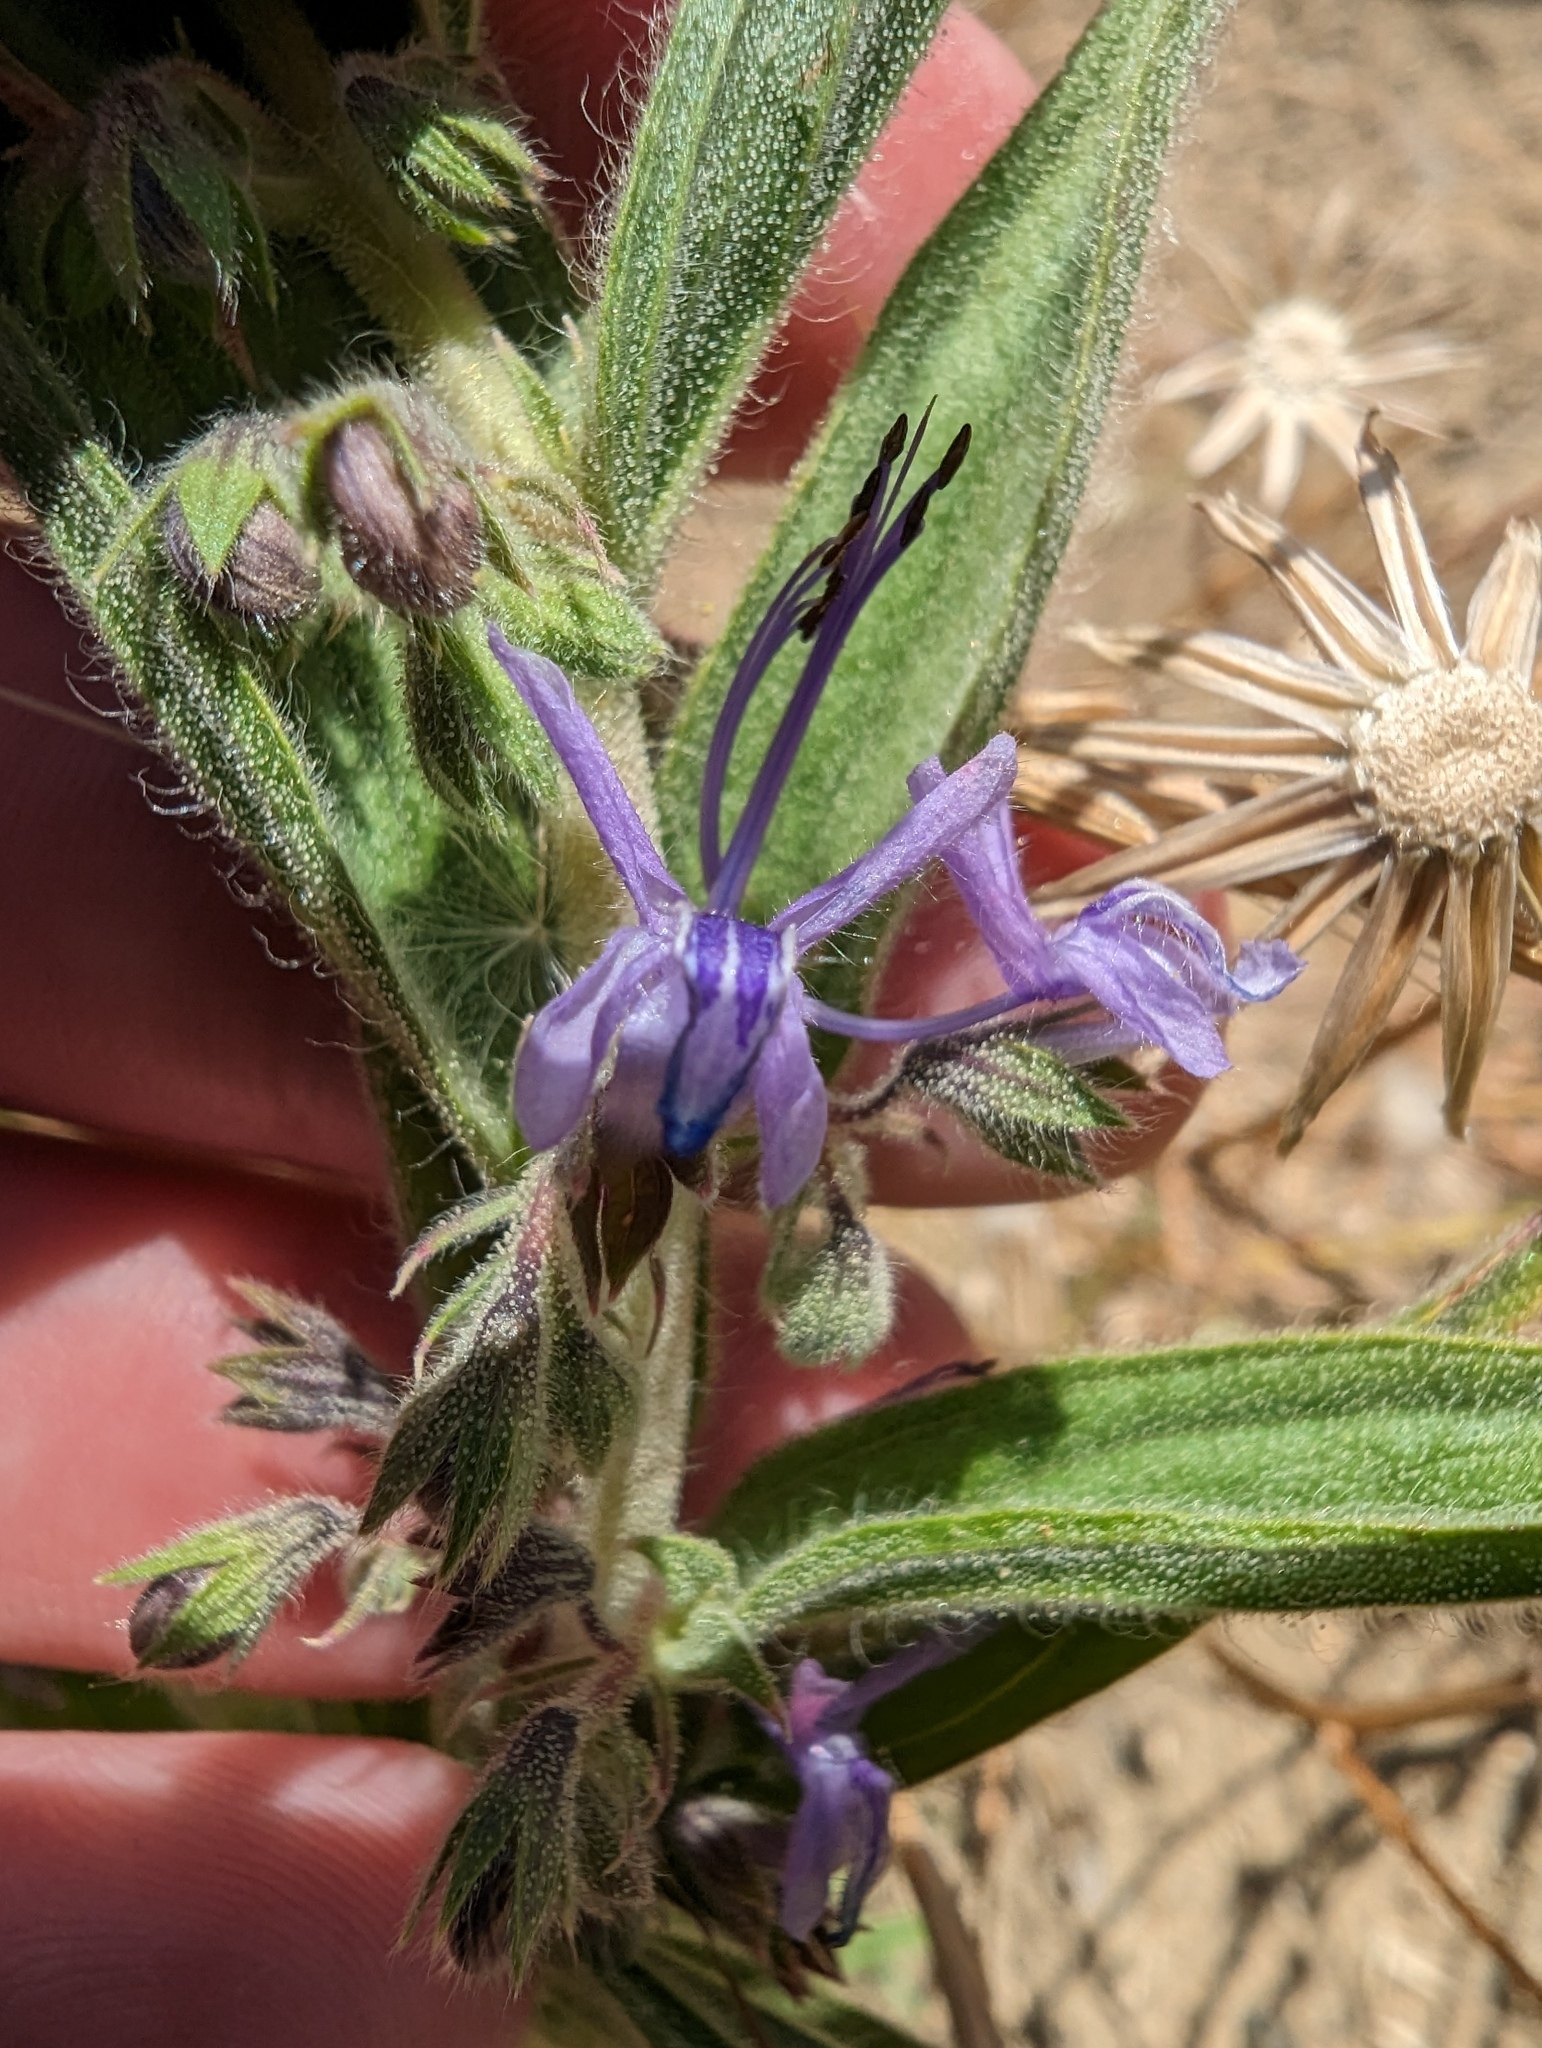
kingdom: Plantae
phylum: Tracheophyta
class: Magnoliopsida
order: Lamiales
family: Lamiaceae
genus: Trichostema
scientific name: Trichostema lanceolatum
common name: Vinegar-weed
